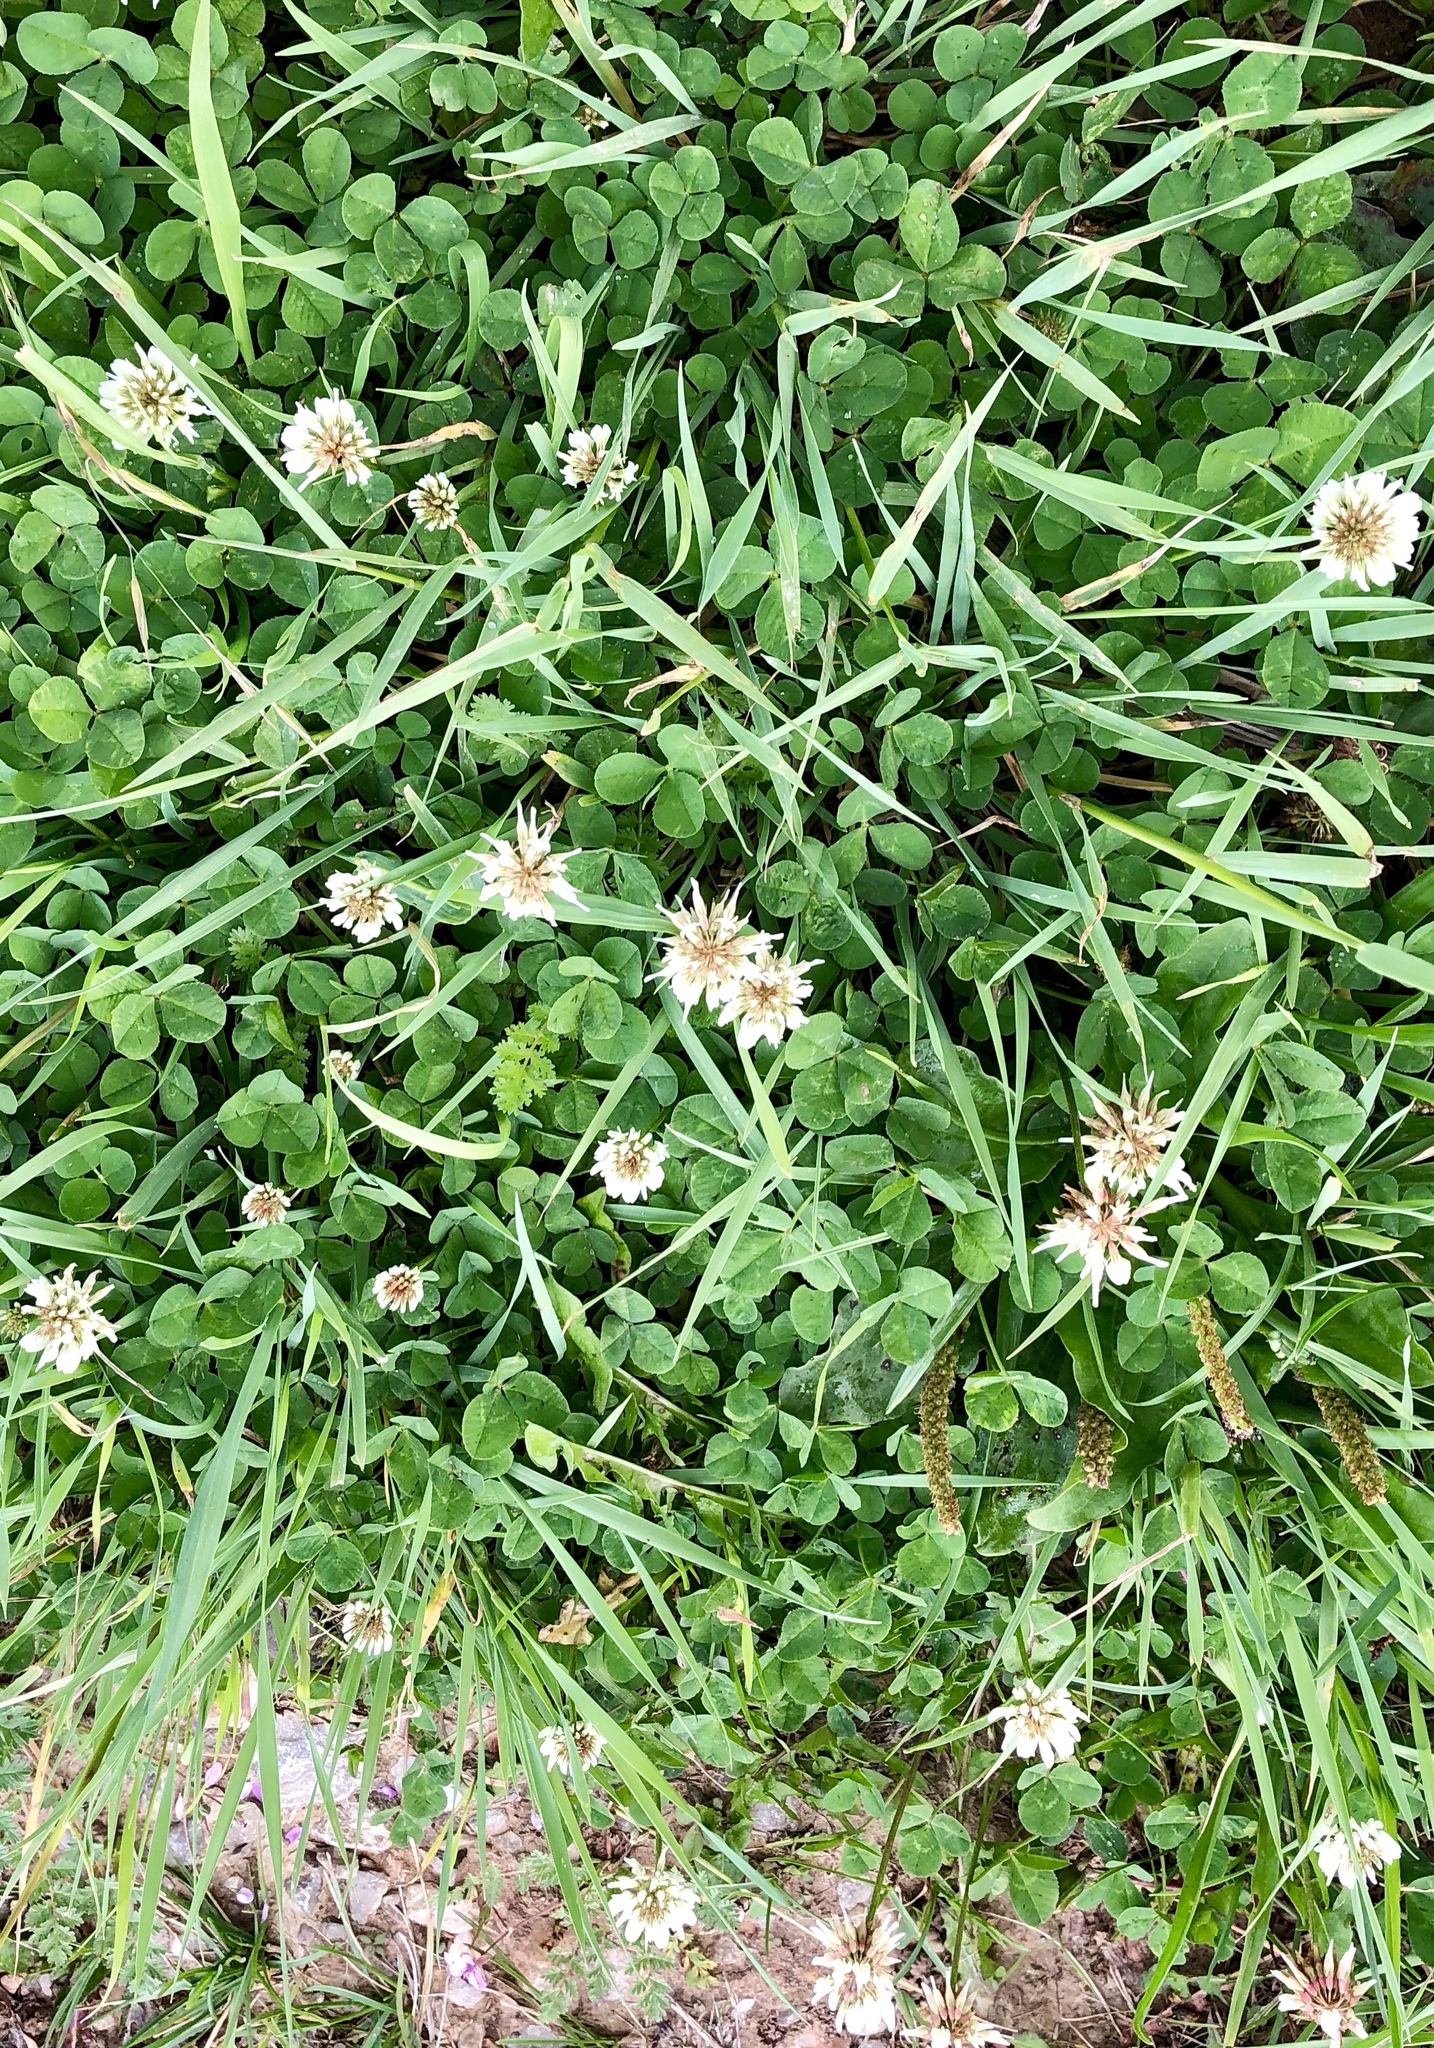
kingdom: Plantae
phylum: Tracheophyta
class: Magnoliopsida
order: Fabales
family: Fabaceae
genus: Trifolium
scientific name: Trifolium repens
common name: White clover
